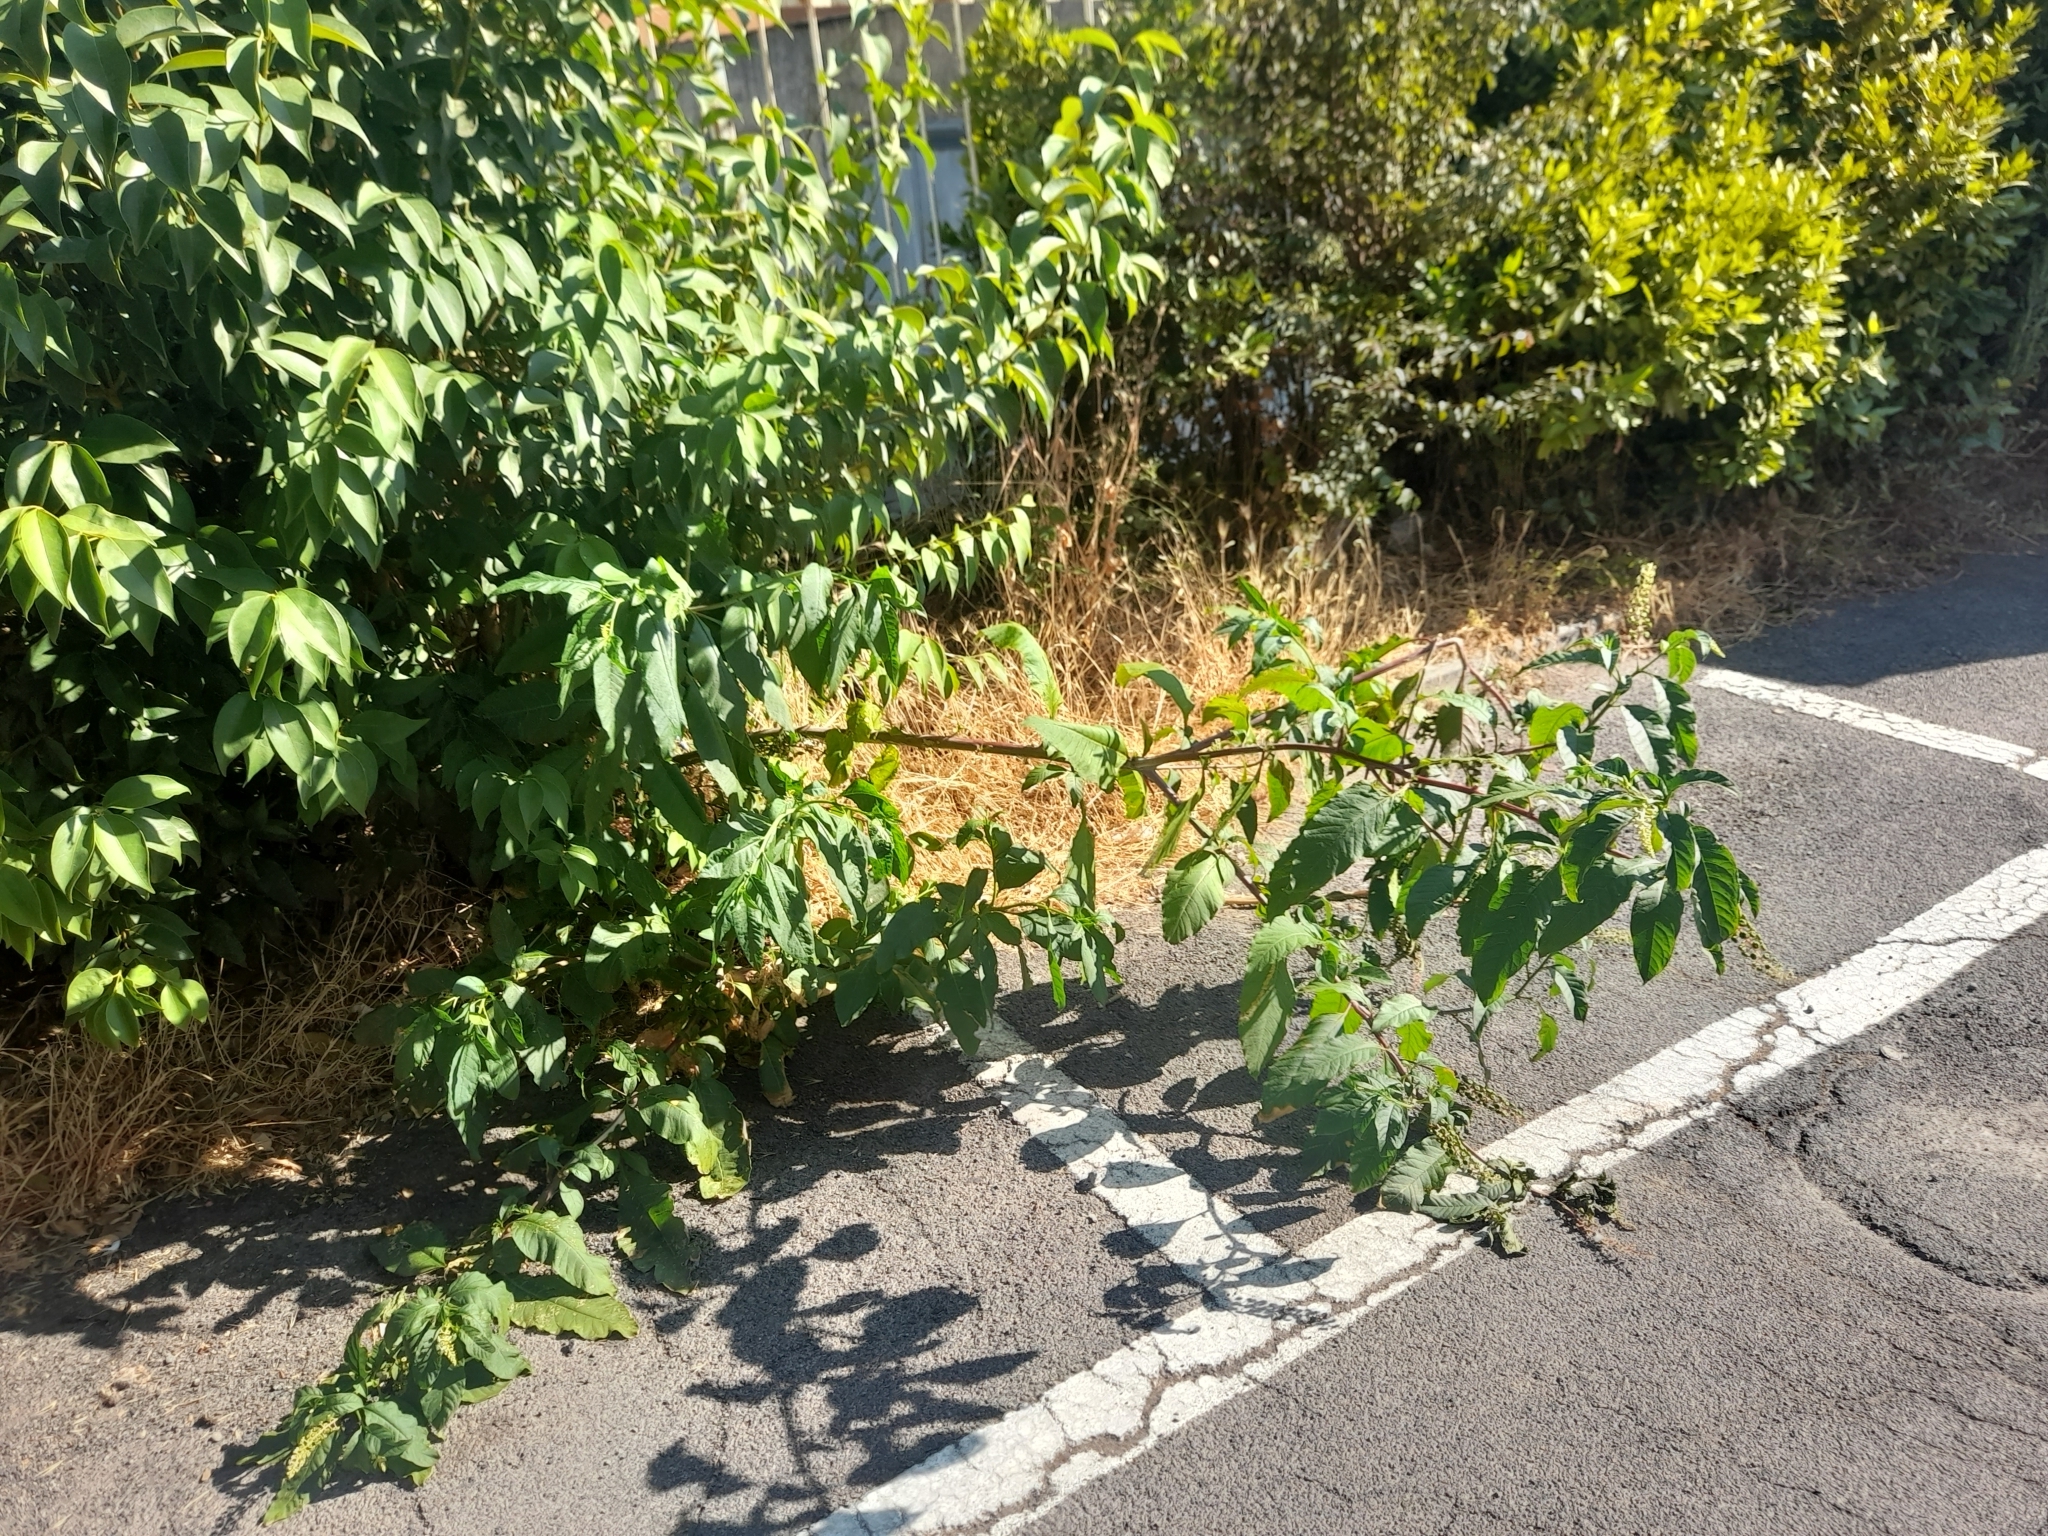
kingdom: Plantae
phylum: Tracheophyta
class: Magnoliopsida
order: Caryophyllales
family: Phytolaccaceae
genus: Phytolacca
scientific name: Phytolacca americana
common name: American pokeweed
